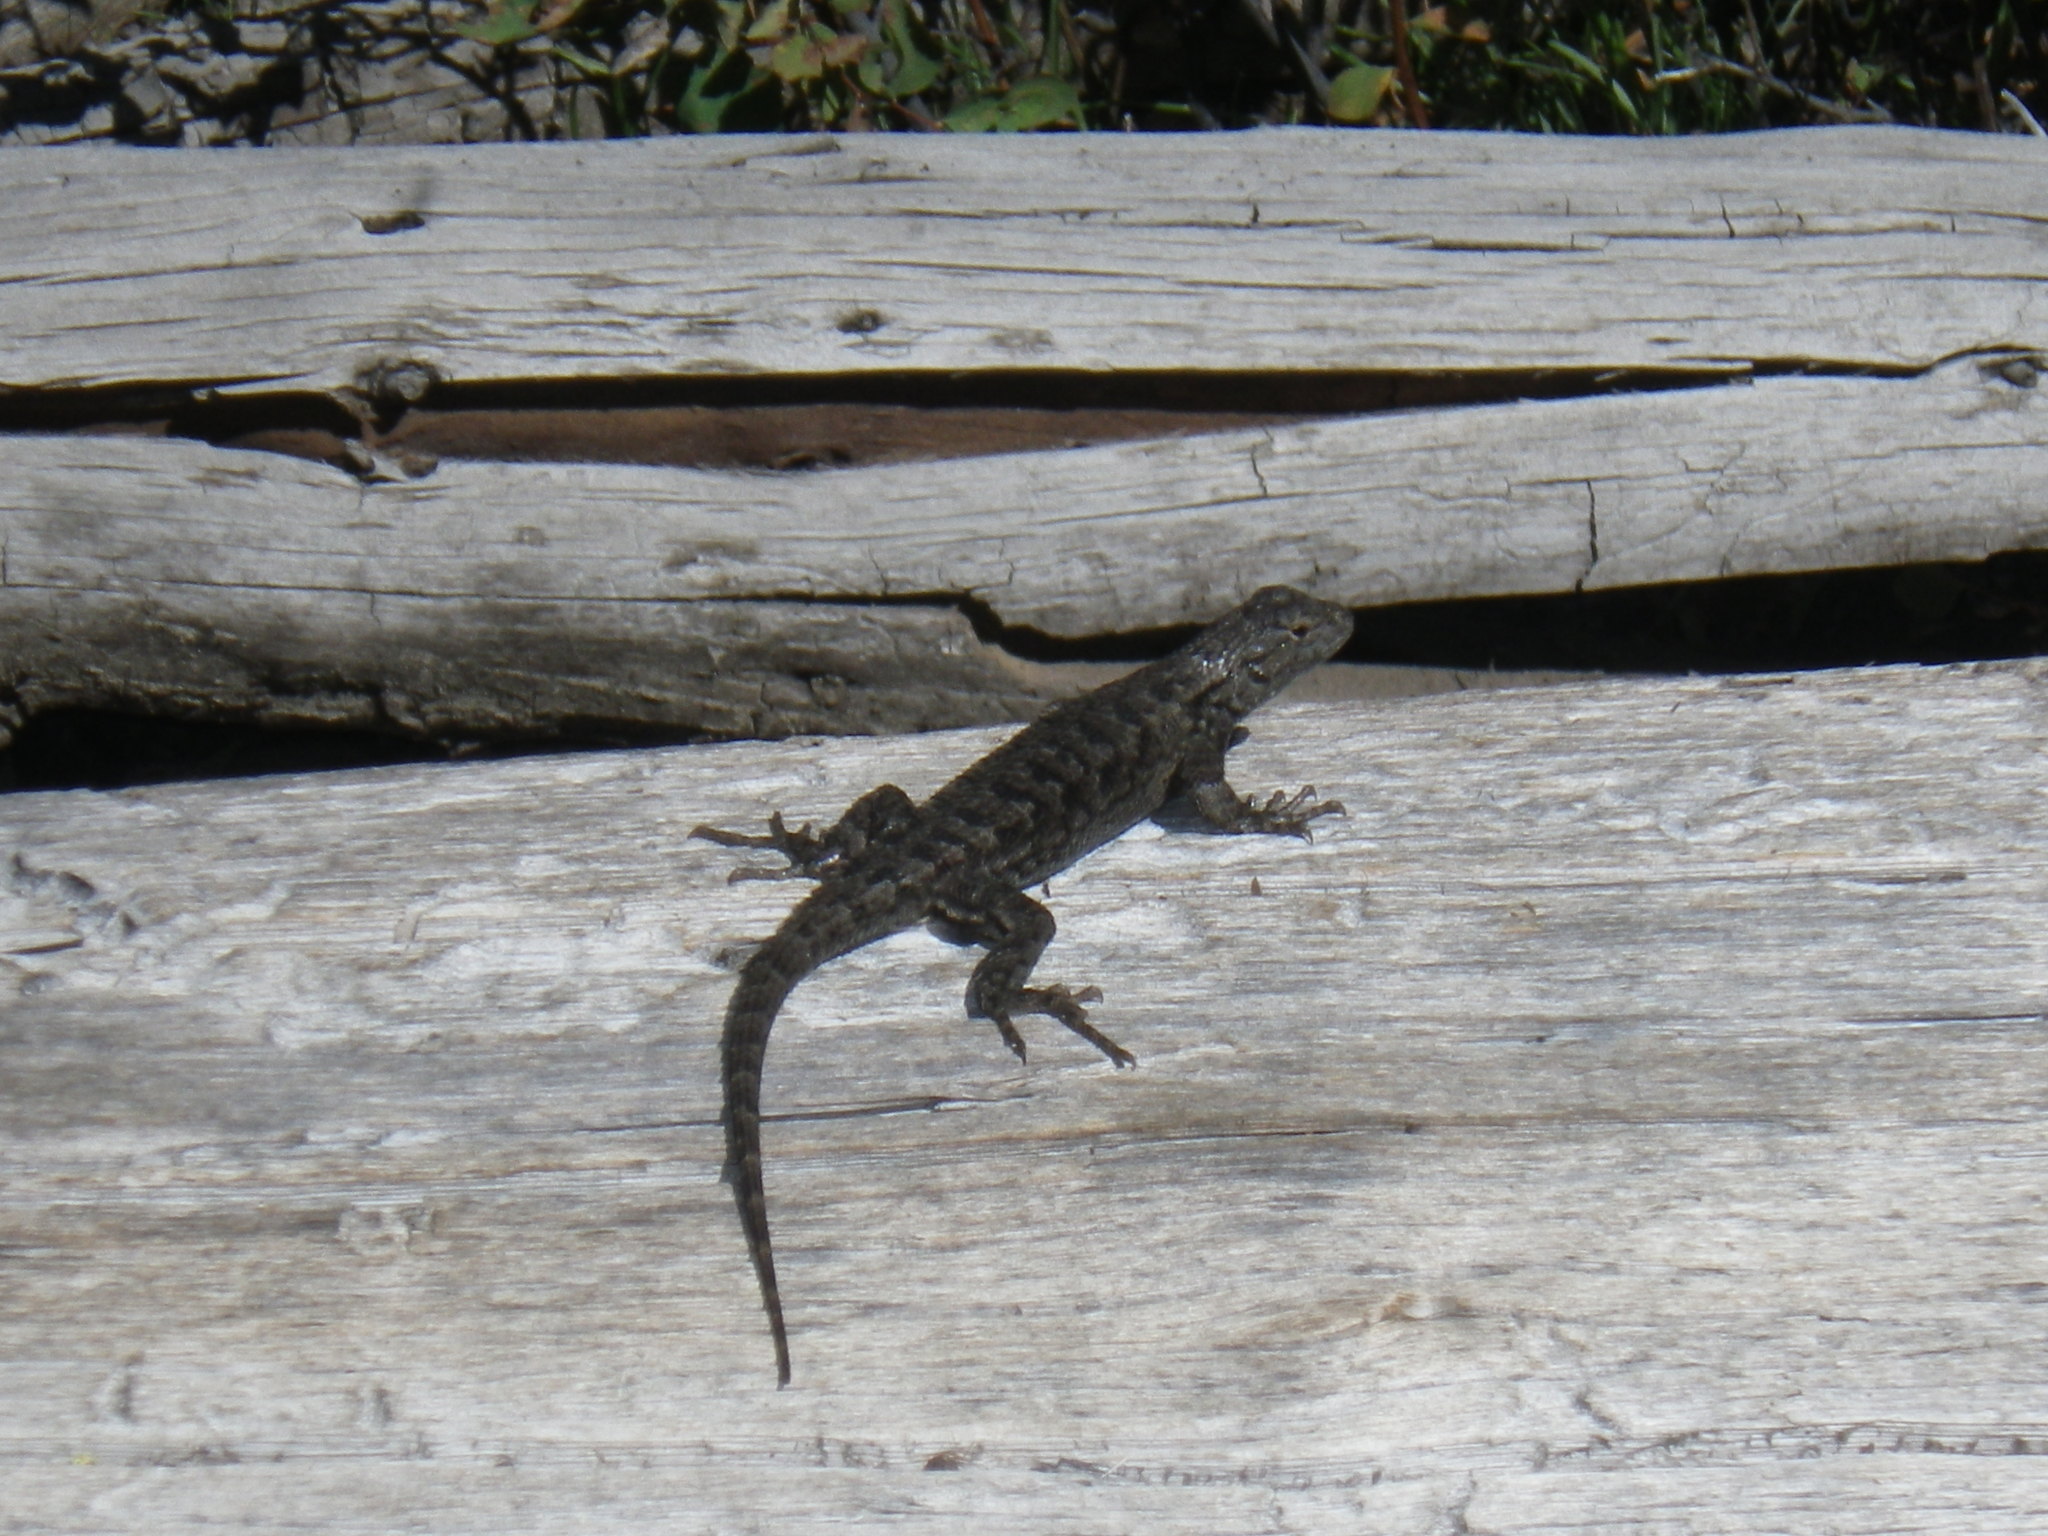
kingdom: Animalia
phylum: Chordata
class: Squamata
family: Phrynosomatidae
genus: Sceloporus
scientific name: Sceloporus occidentalis
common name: Western fence lizard
